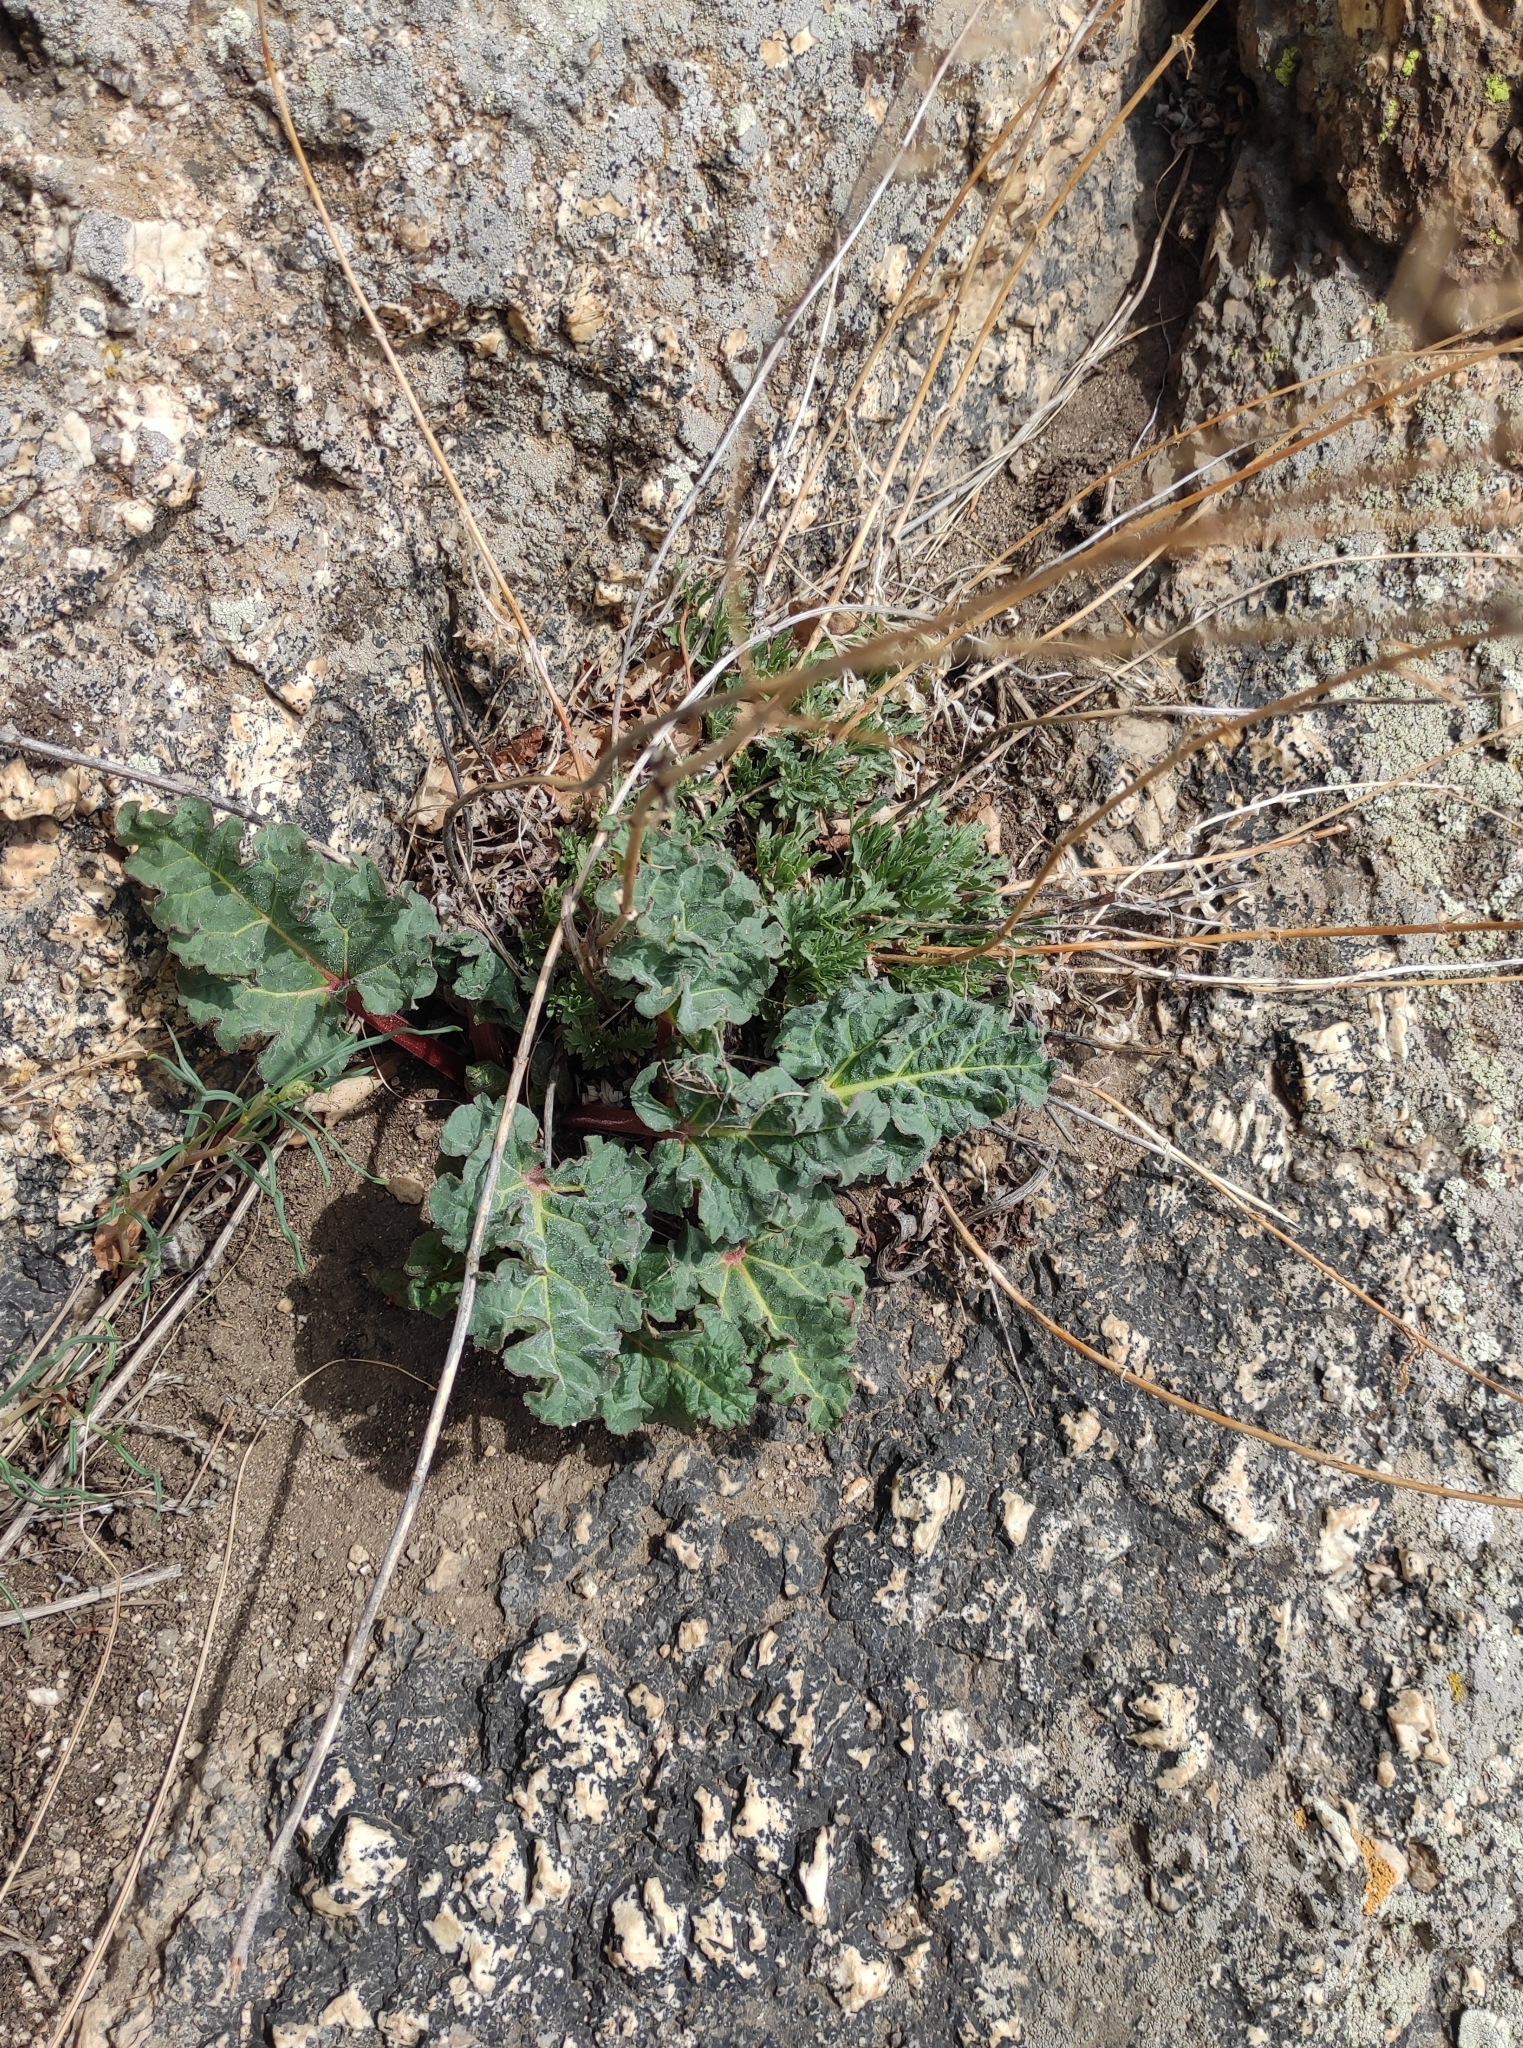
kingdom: Plantae
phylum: Tracheophyta
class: Magnoliopsida
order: Caryophyllales
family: Polygonaceae
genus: Rheum
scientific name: Rheum rhabarbarum
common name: Garden rhubarb
